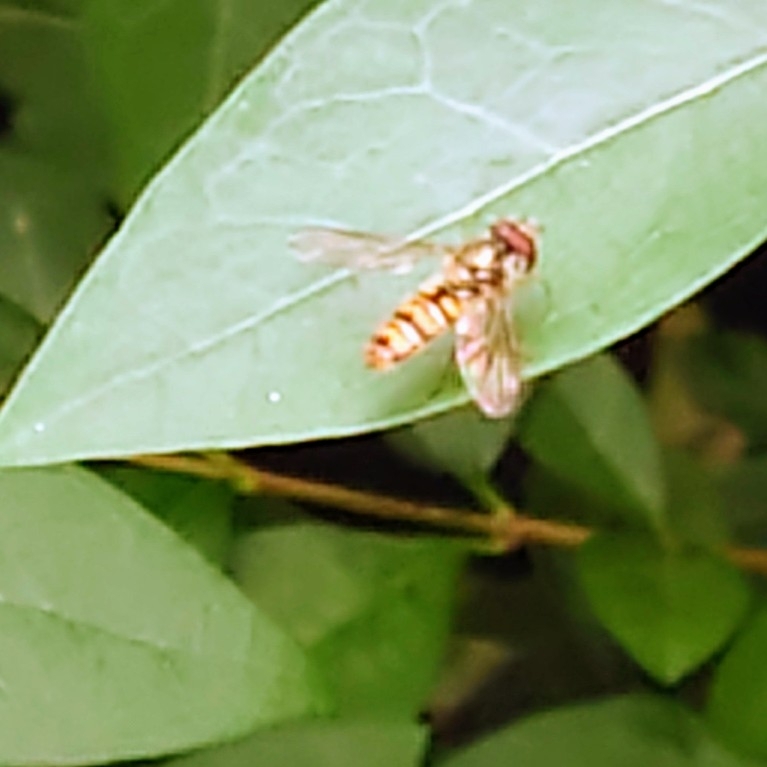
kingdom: Animalia
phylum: Arthropoda
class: Insecta
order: Diptera
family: Syrphidae
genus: Episyrphus
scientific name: Episyrphus balteatus
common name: Marmalade hoverfly
